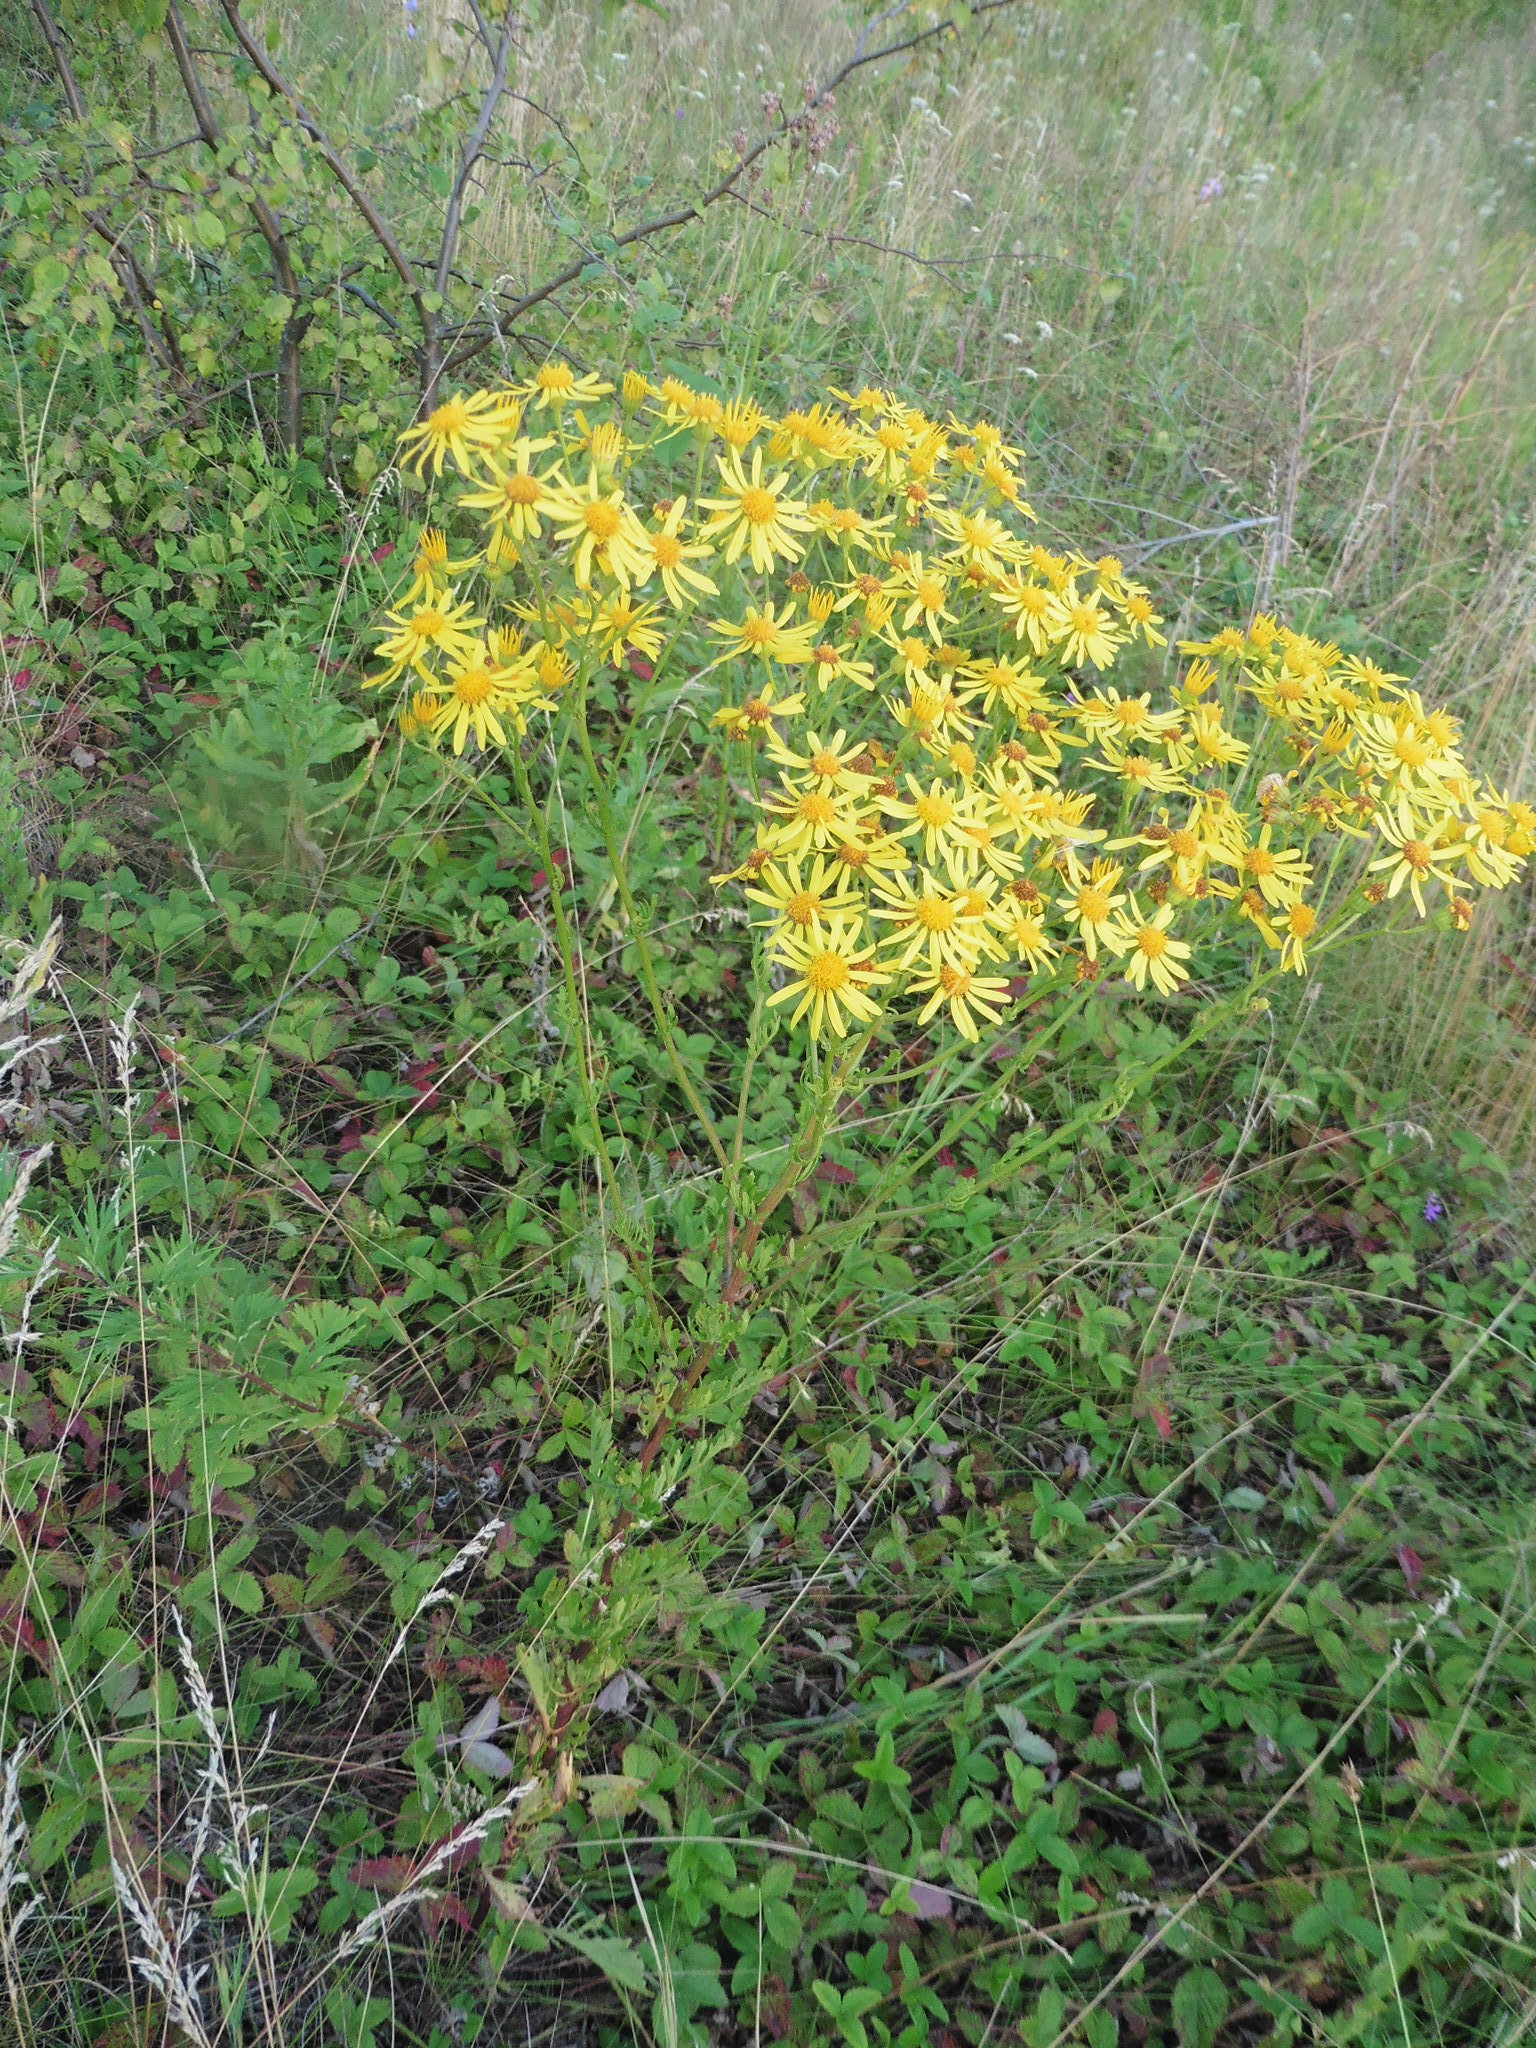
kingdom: Plantae
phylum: Tracheophyta
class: Magnoliopsida
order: Asterales
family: Asteraceae
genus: Jacobaea
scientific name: Jacobaea vulgaris
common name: Stinking willie
